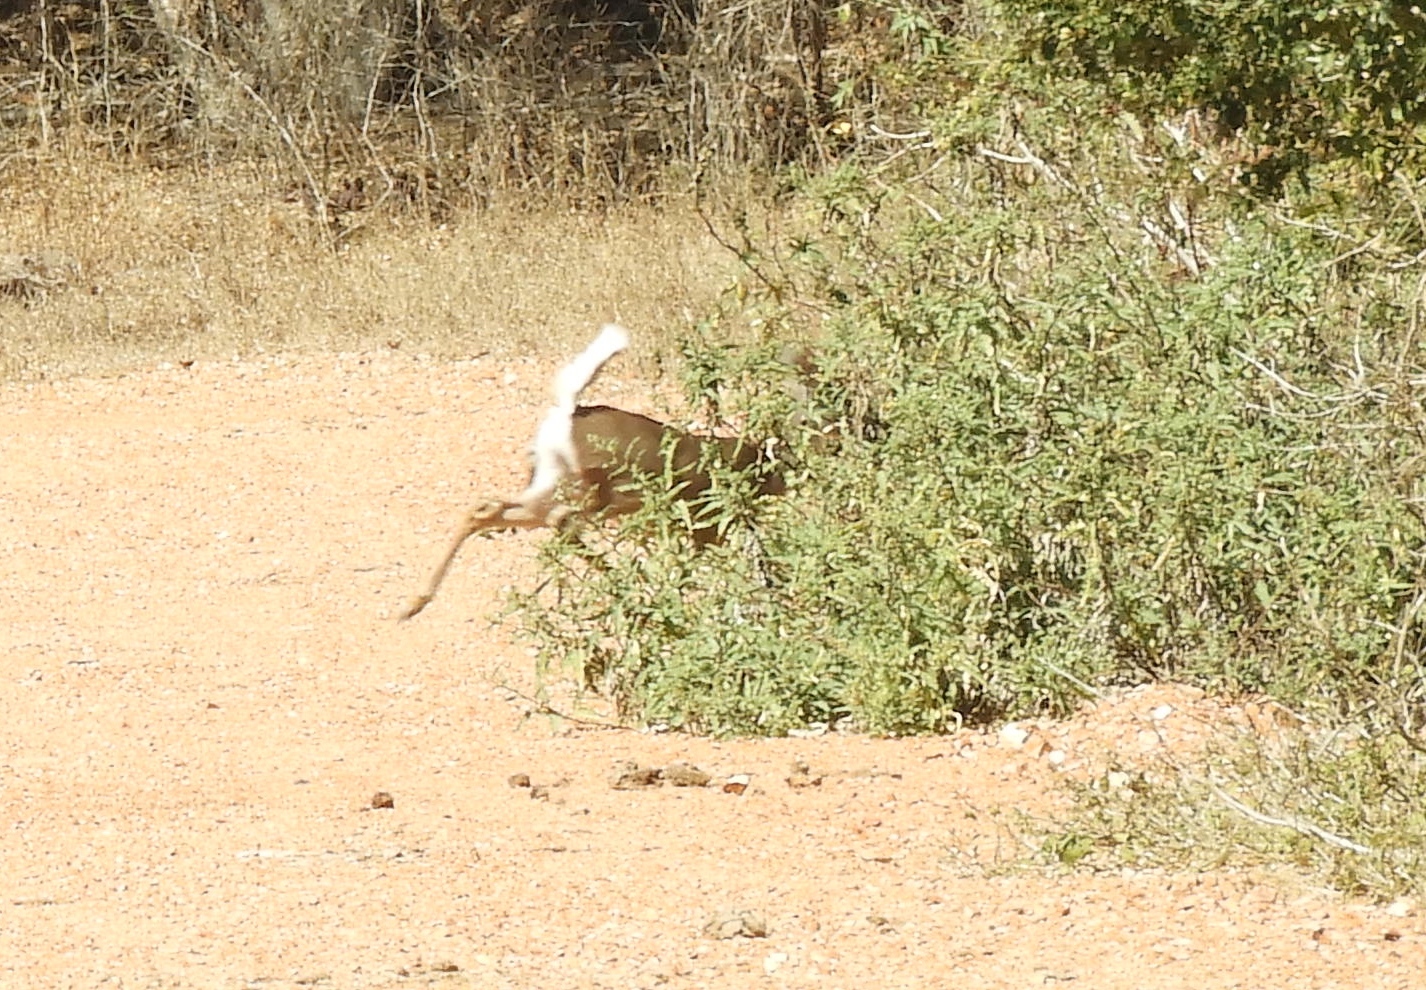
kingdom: Animalia
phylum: Chordata
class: Mammalia
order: Artiodactyla
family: Cervidae
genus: Odocoileus
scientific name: Odocoileus virginianus
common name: White-tailed deer
